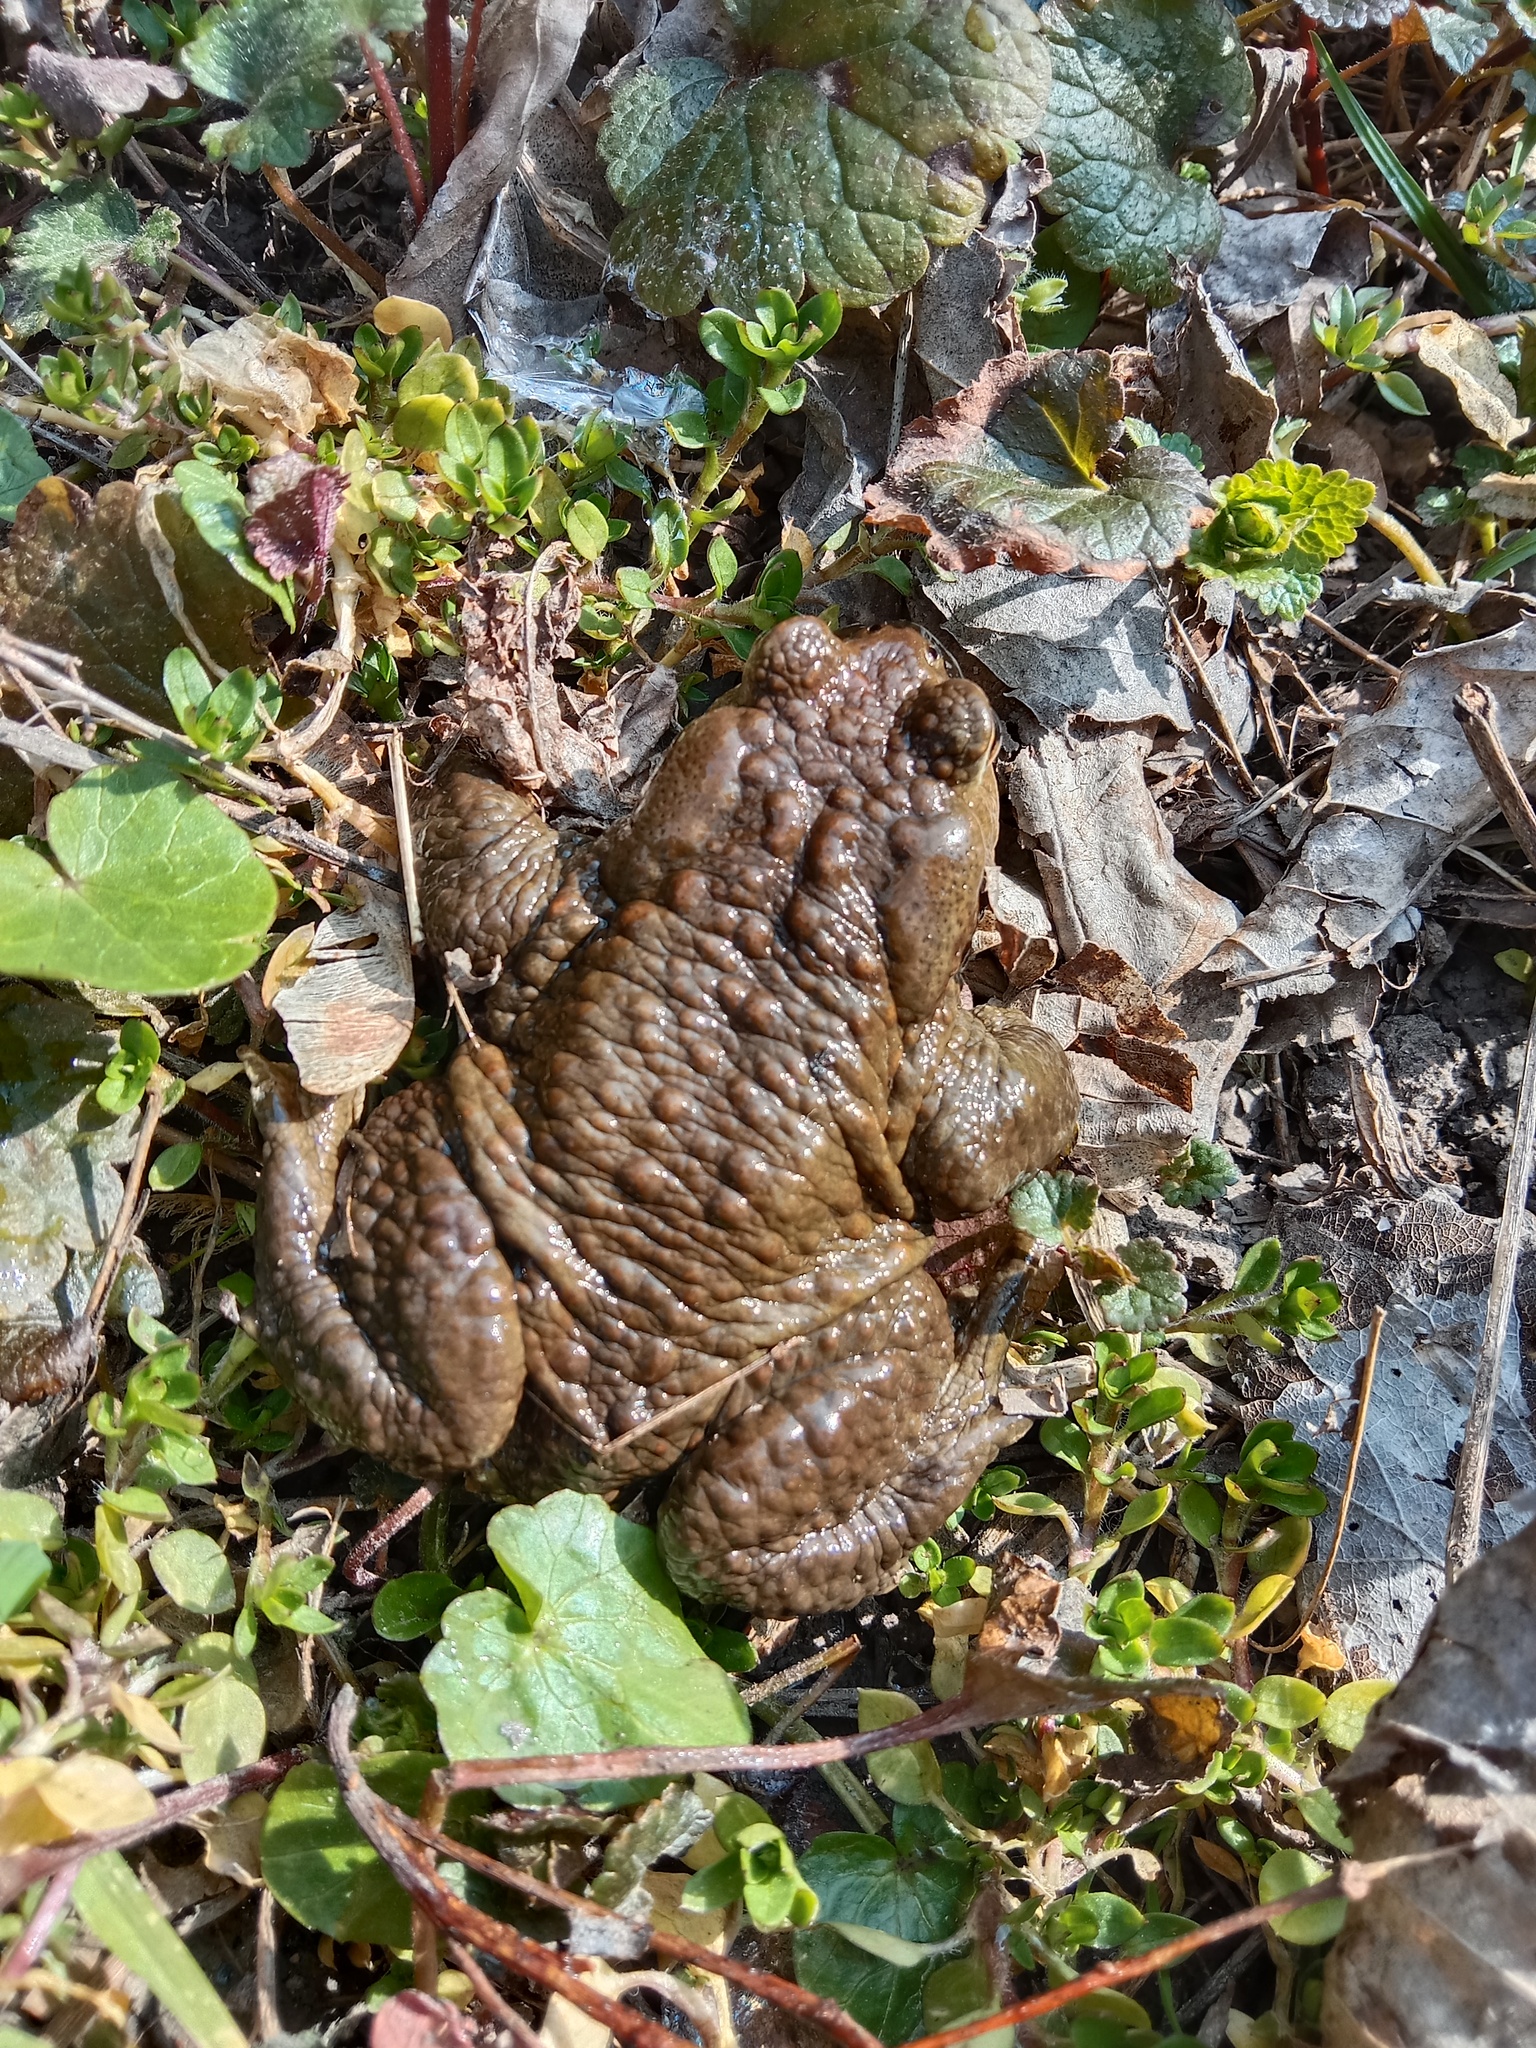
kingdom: Animalia
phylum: Chordata
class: Amphibia
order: Anura
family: Bufonidae
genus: Bufo
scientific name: Bufo bufo
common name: Common toad
